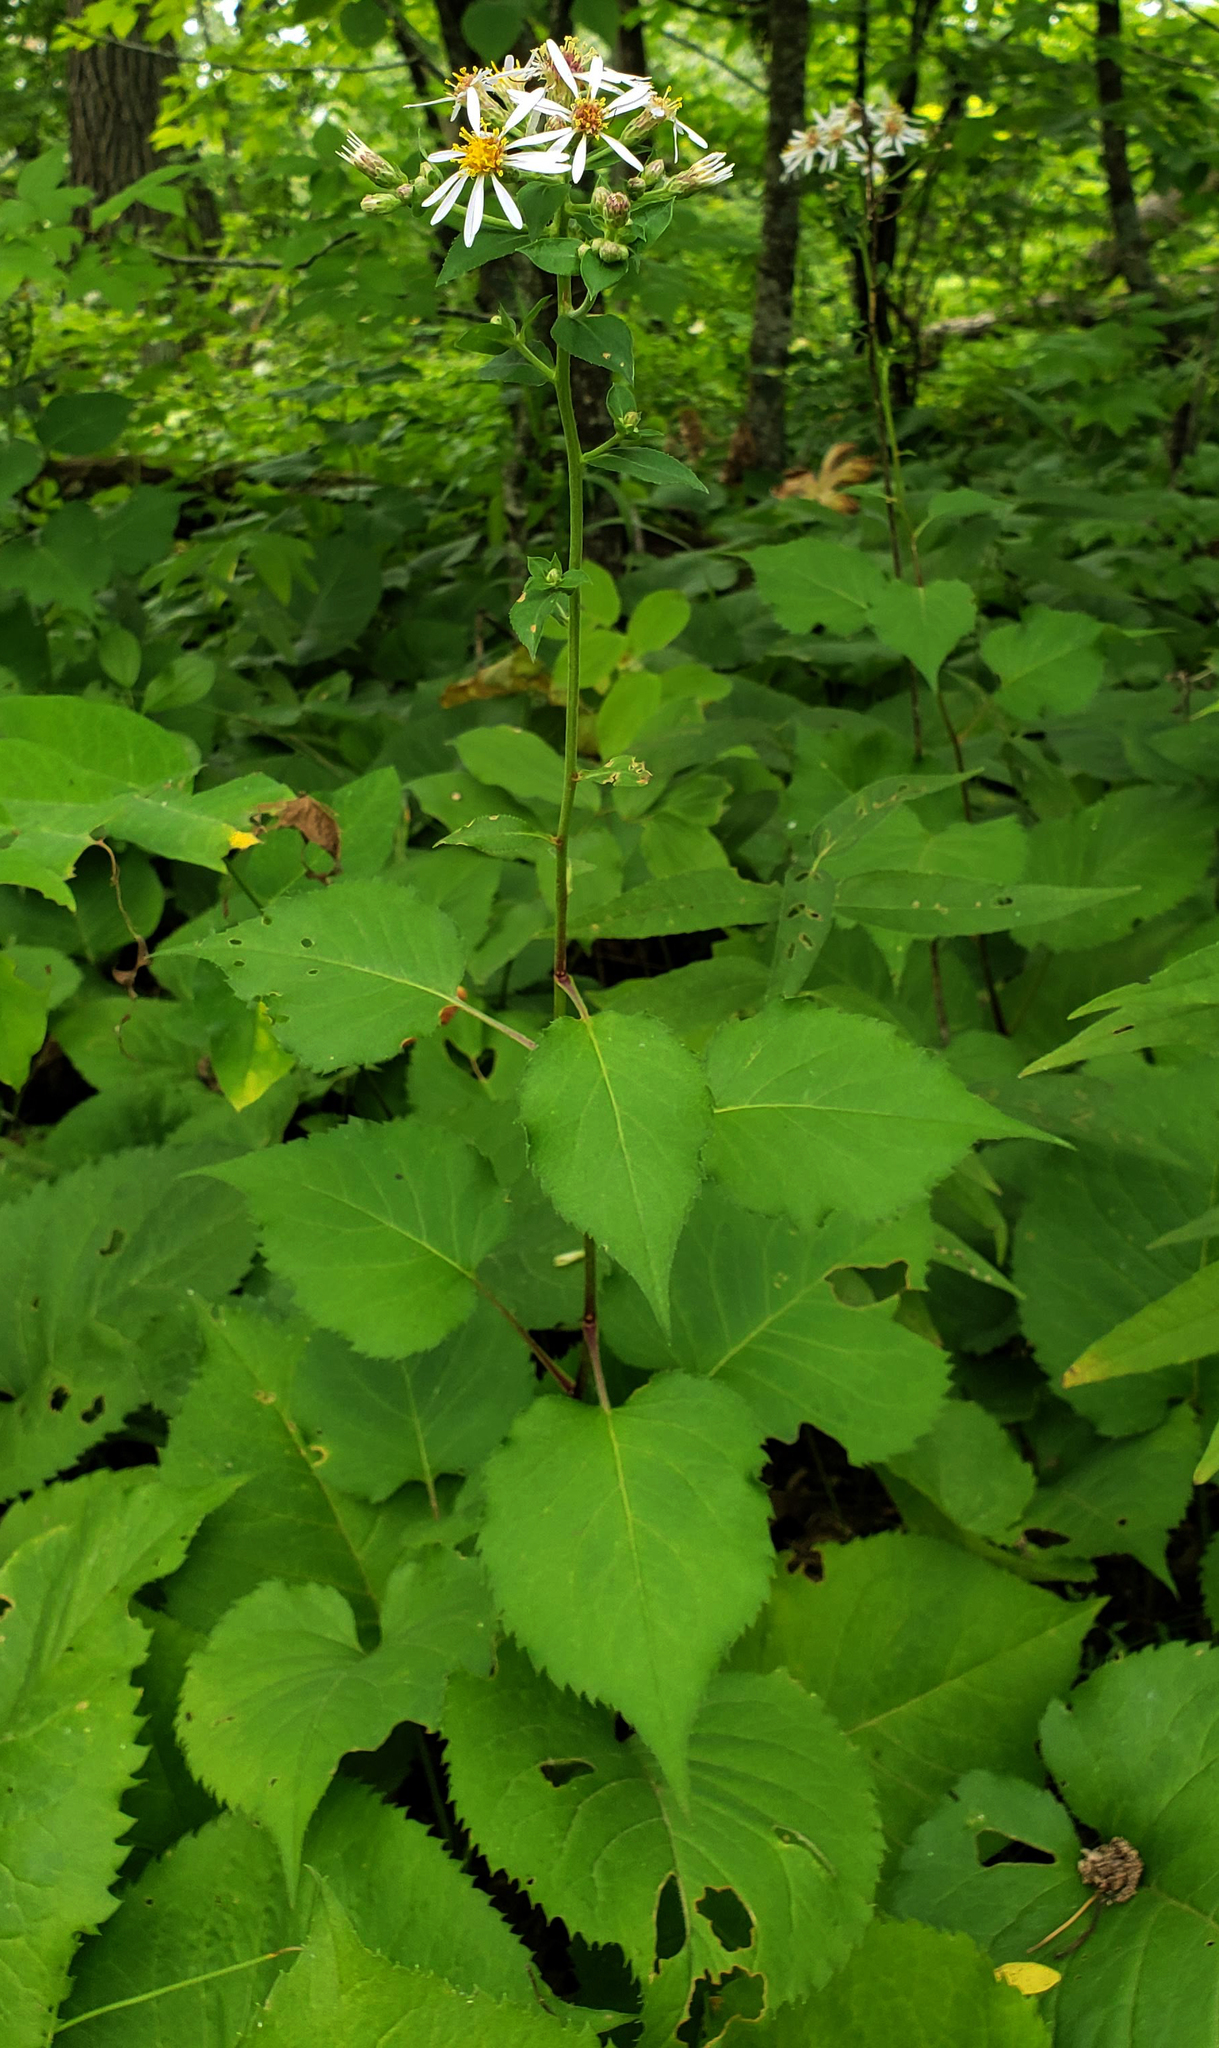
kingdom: Plantae
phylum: Tracheophyta
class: Magnoliopsida
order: Asterales
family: Asteraceae
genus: Eurybia
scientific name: Eurybia macrophylla
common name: Big-leaved aster
